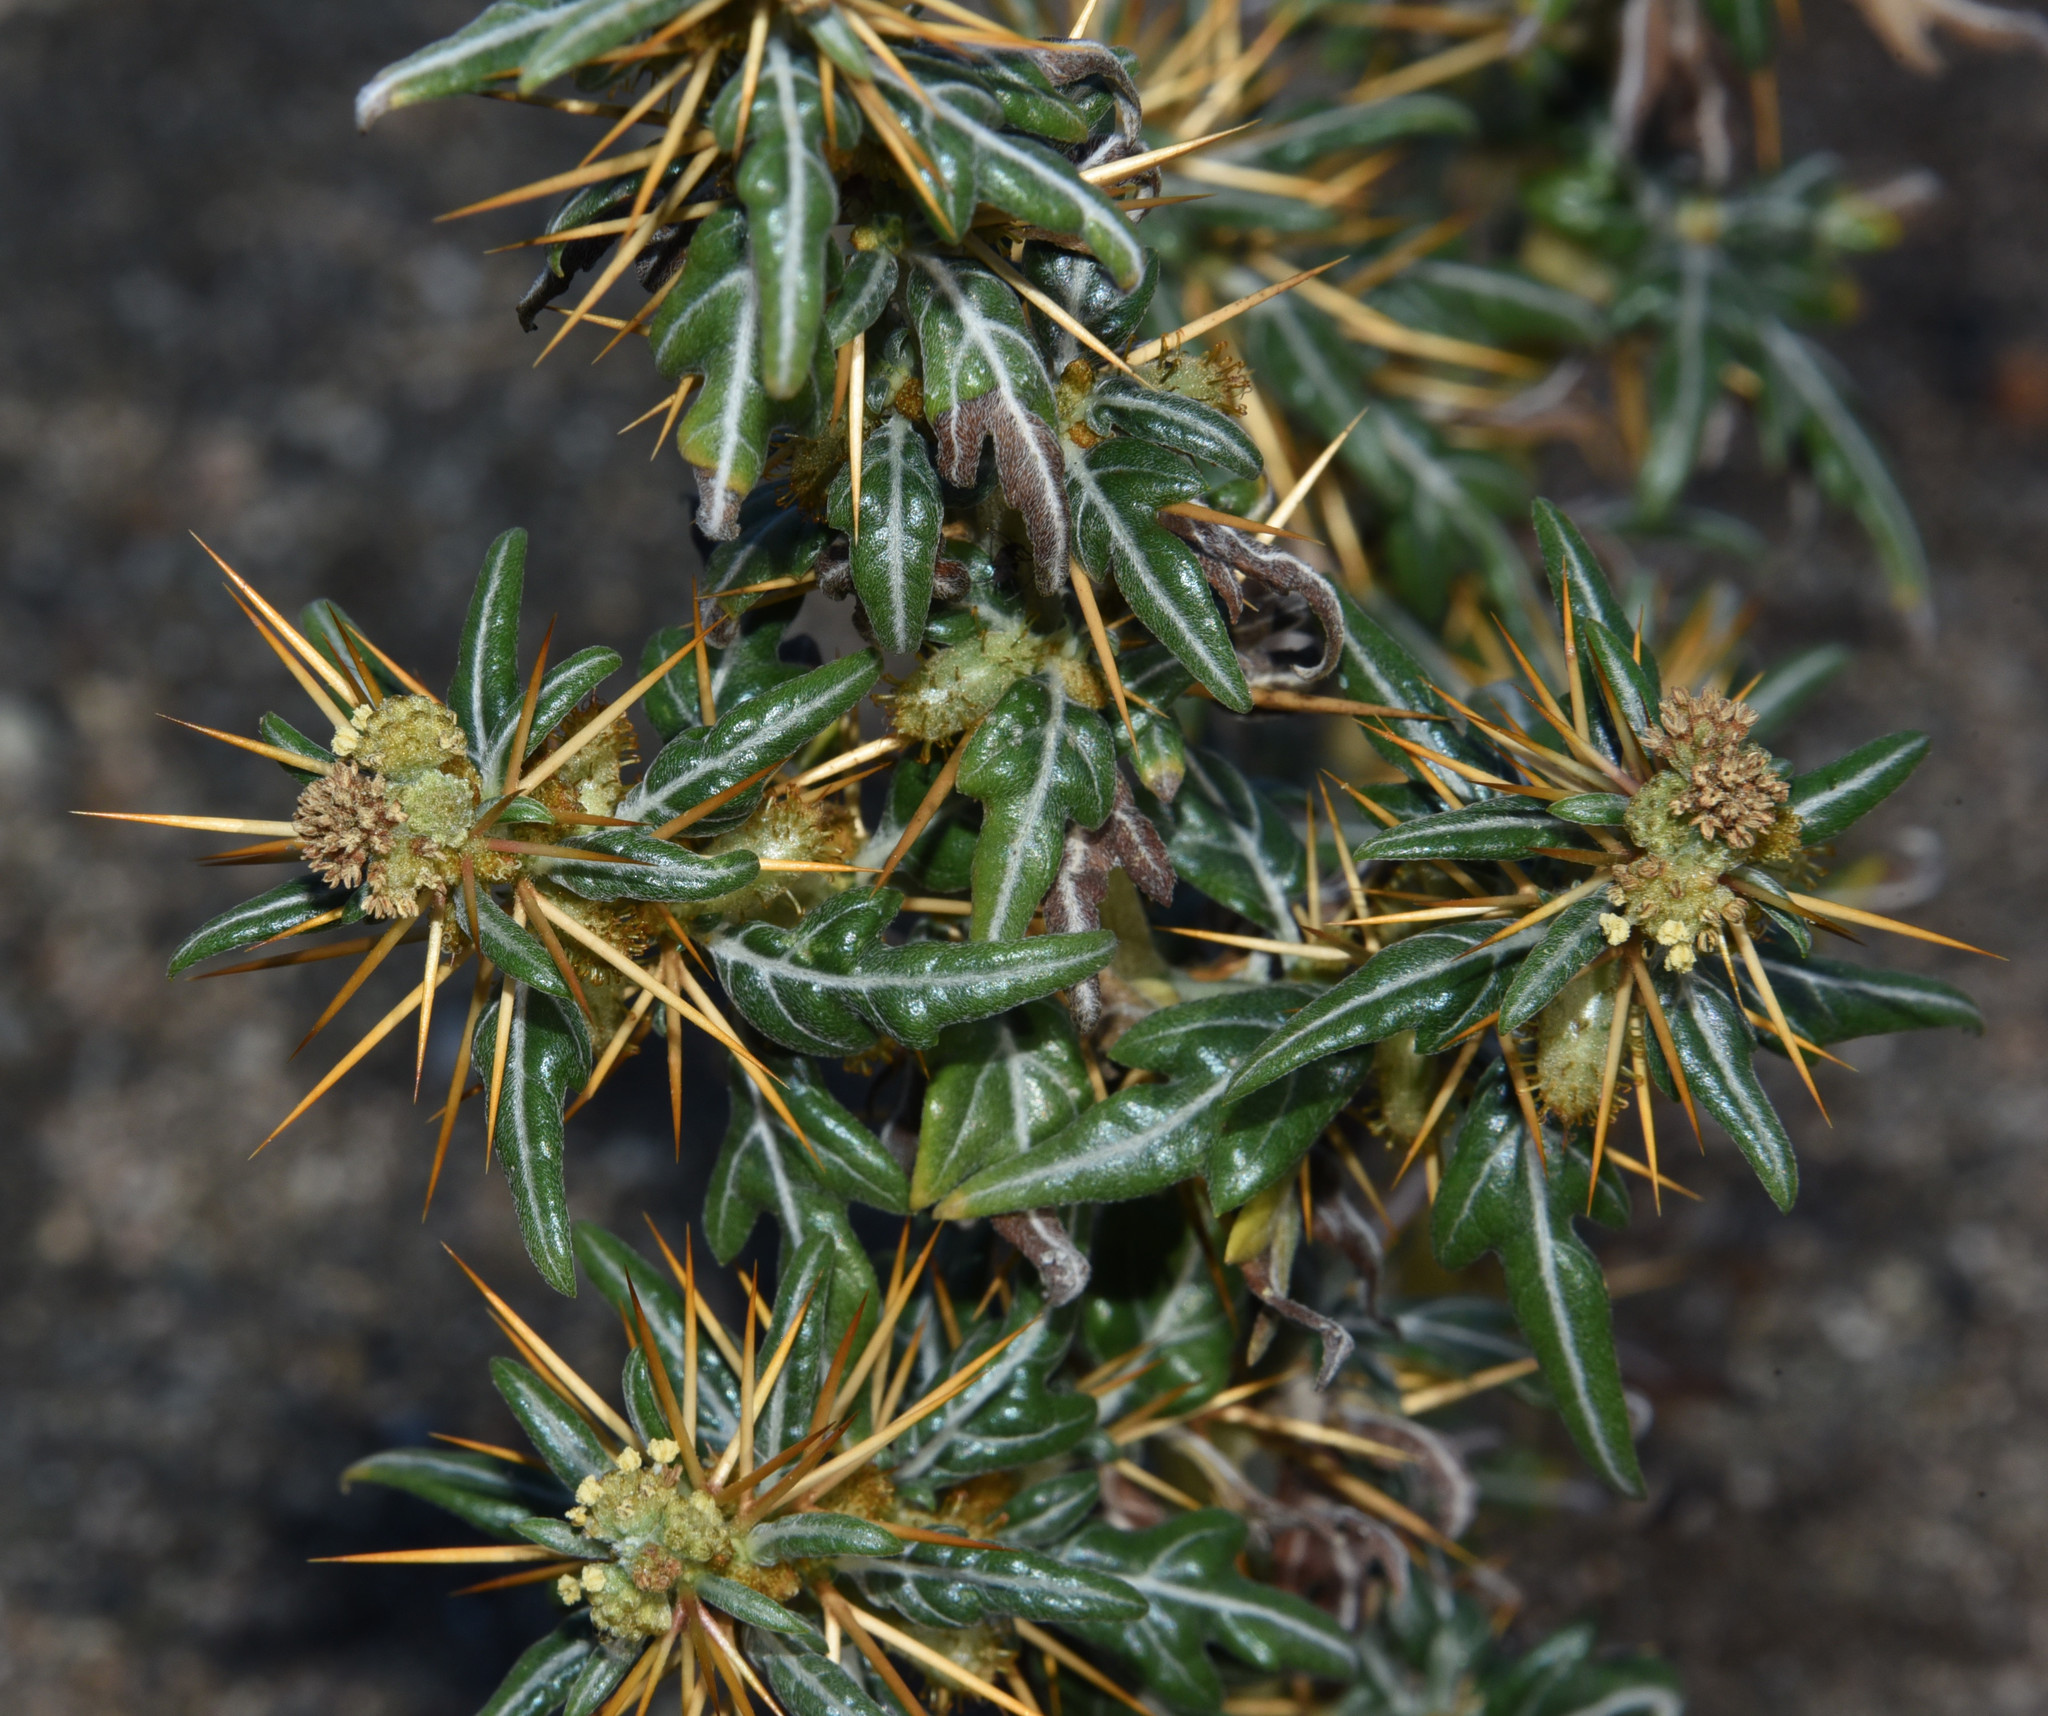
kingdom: Plantae
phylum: Tracheophyta
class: Magnoliopsida
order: Asterales
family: Asteraceae
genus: Xanthium
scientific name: Xanthium spinosum
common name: Spiny cocklebur
